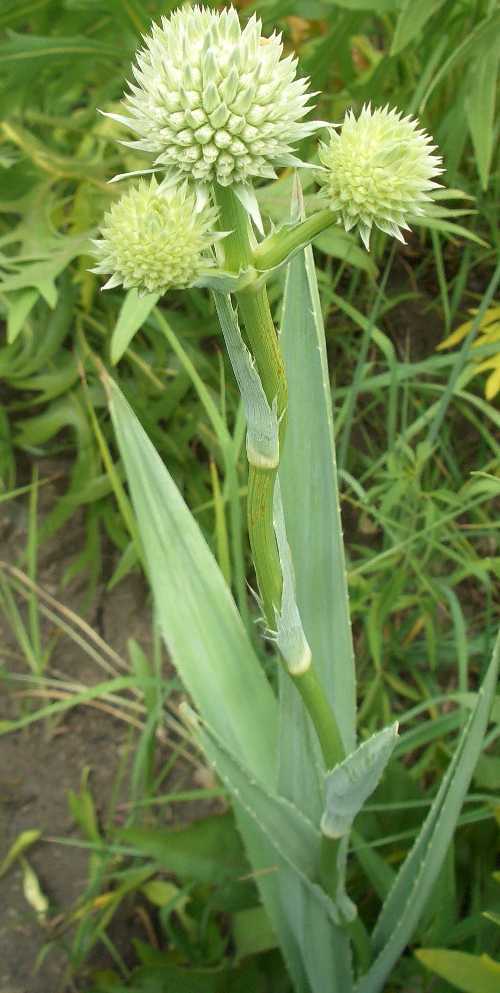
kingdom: Plantae
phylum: Tracheophyta
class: Magnoliopsida
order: Apiales
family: Apiaceae
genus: Eryngium
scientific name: Eryngium yuccifolium
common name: Button eryngo
